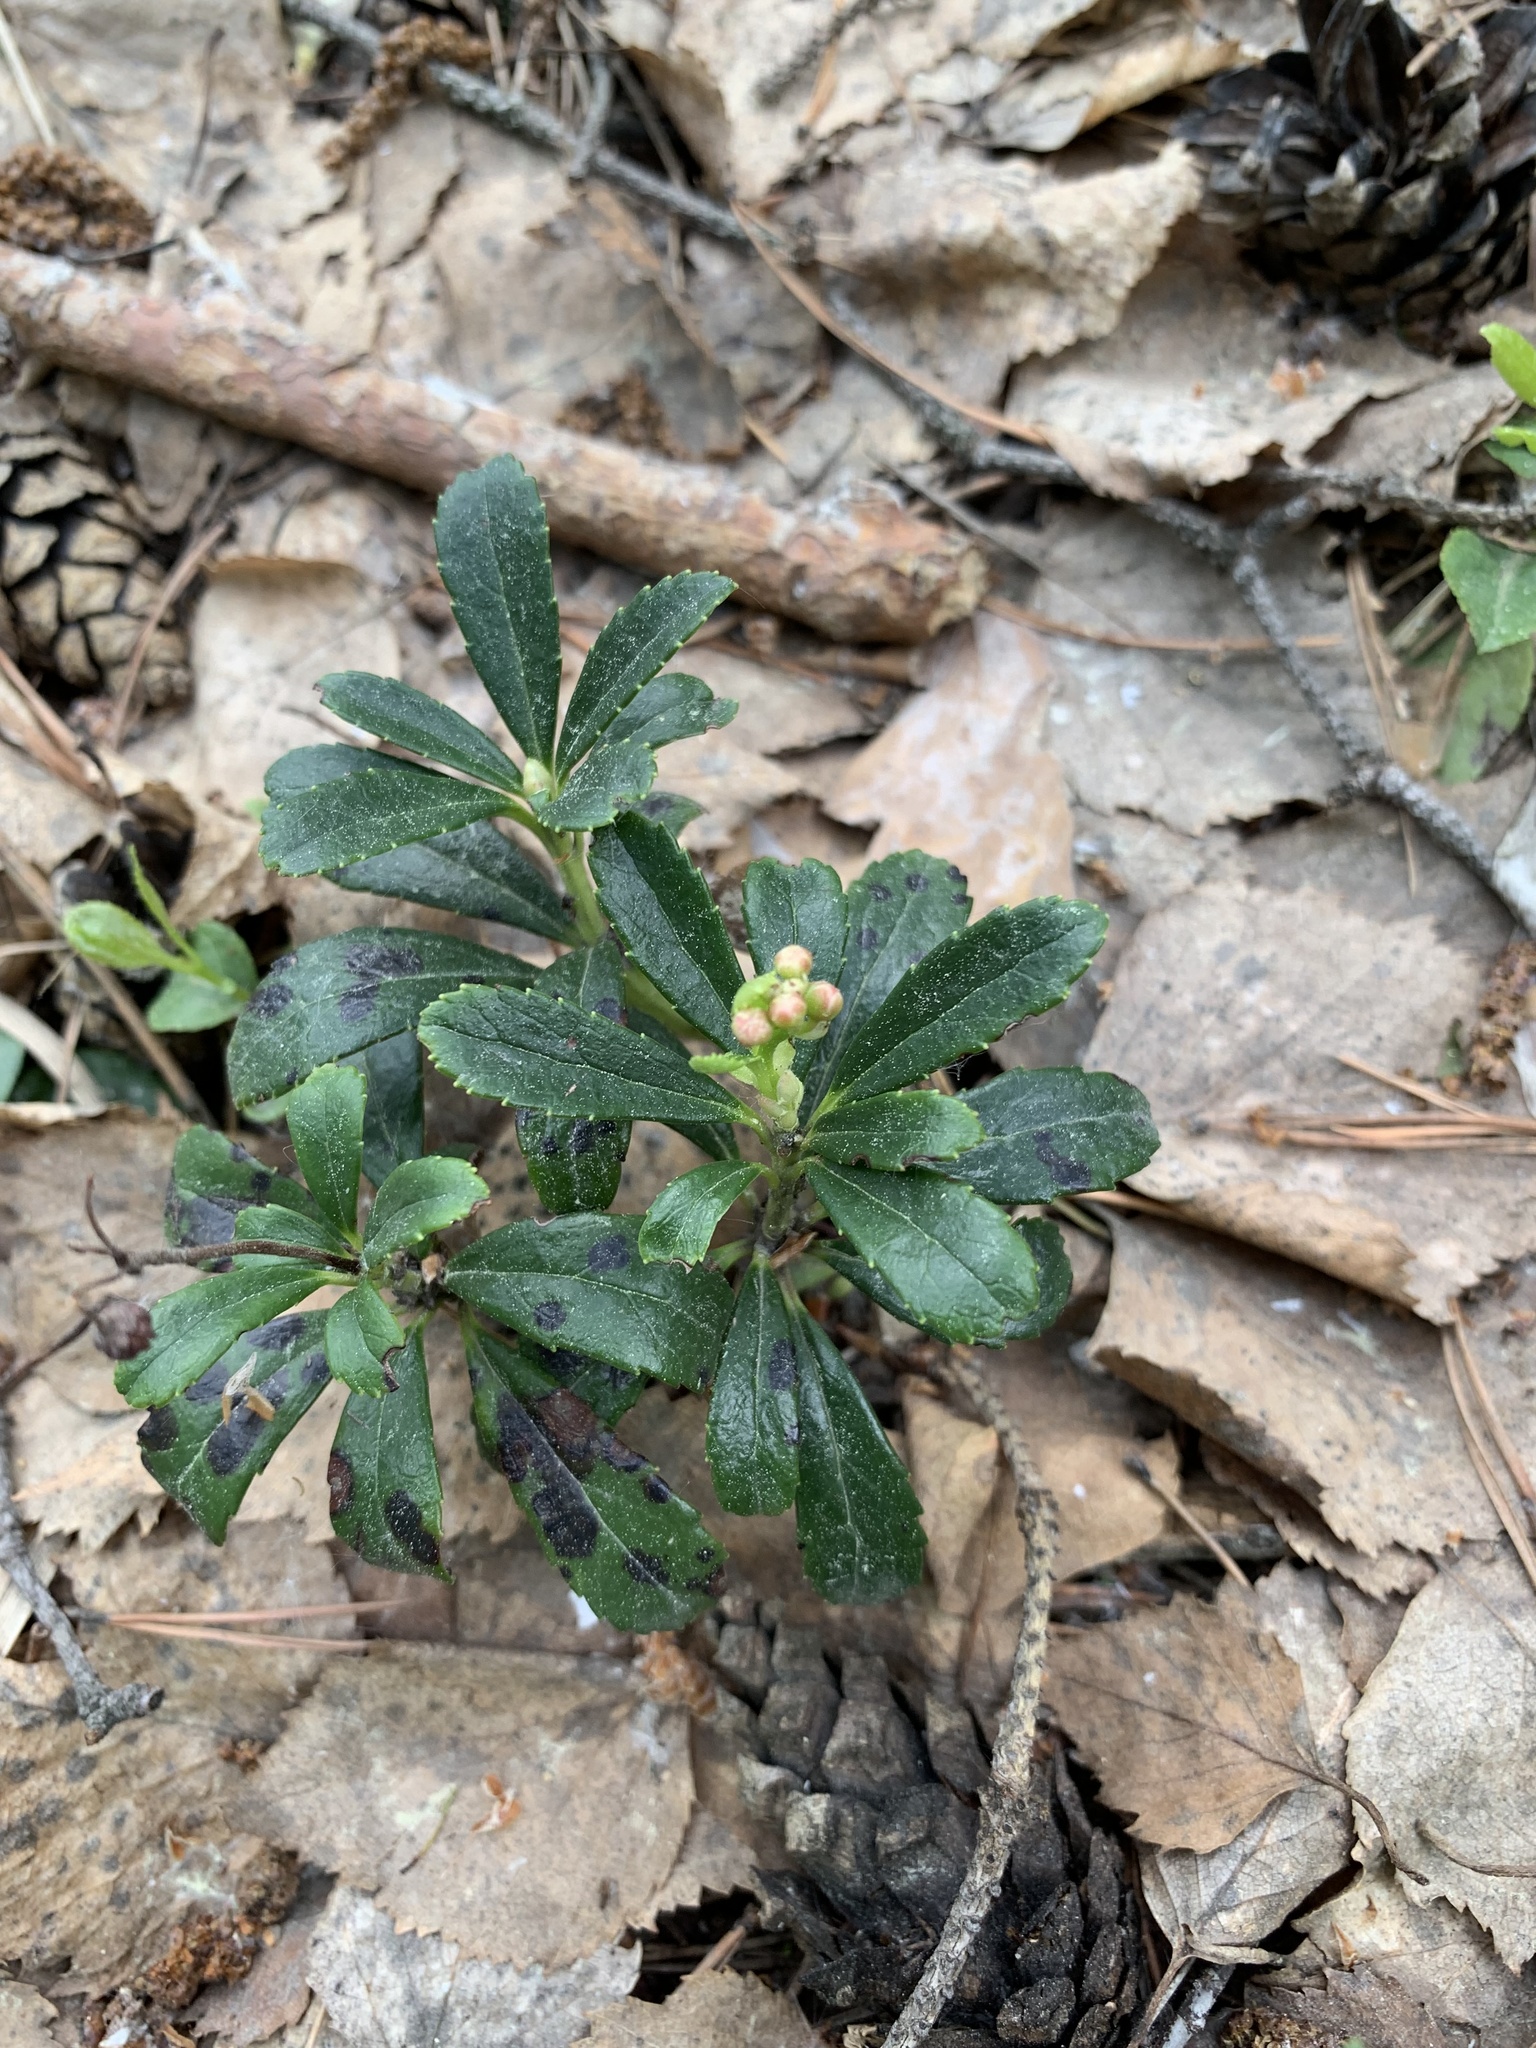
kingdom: Plantae
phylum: Tracheophyta
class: Magnoliopsida
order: Ericales
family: Ericaceae
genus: Chimaphila
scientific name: Chimaphila umbellata
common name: Pipsissewa
